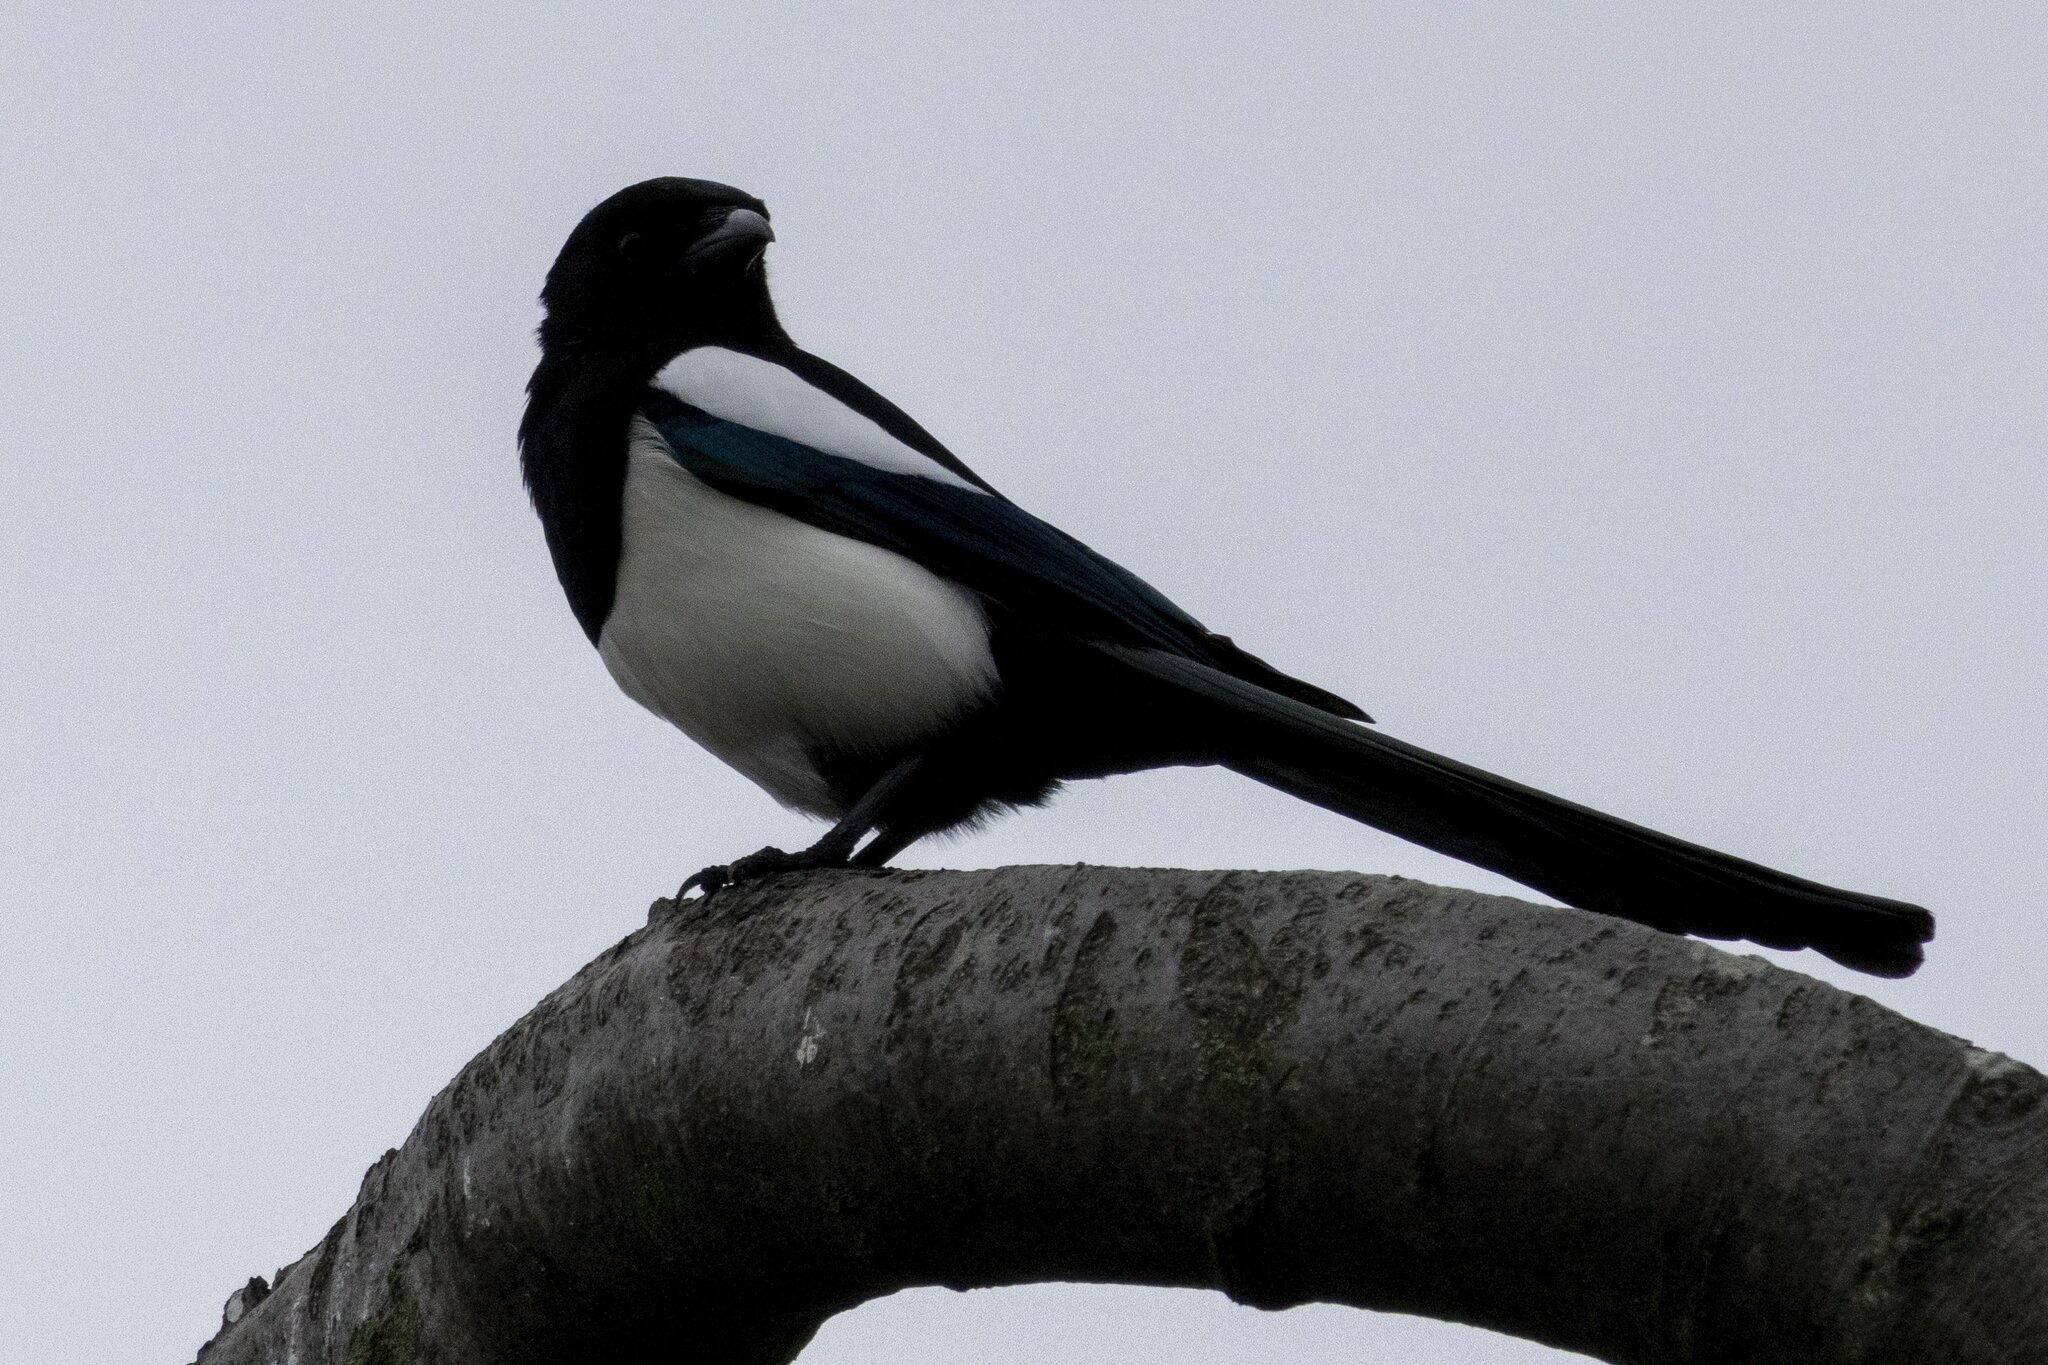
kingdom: Animalia
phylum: Chordata
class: Aves
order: Passeriformes
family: Corvidae
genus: Pica
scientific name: Pica pica
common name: Eurasian magpie
